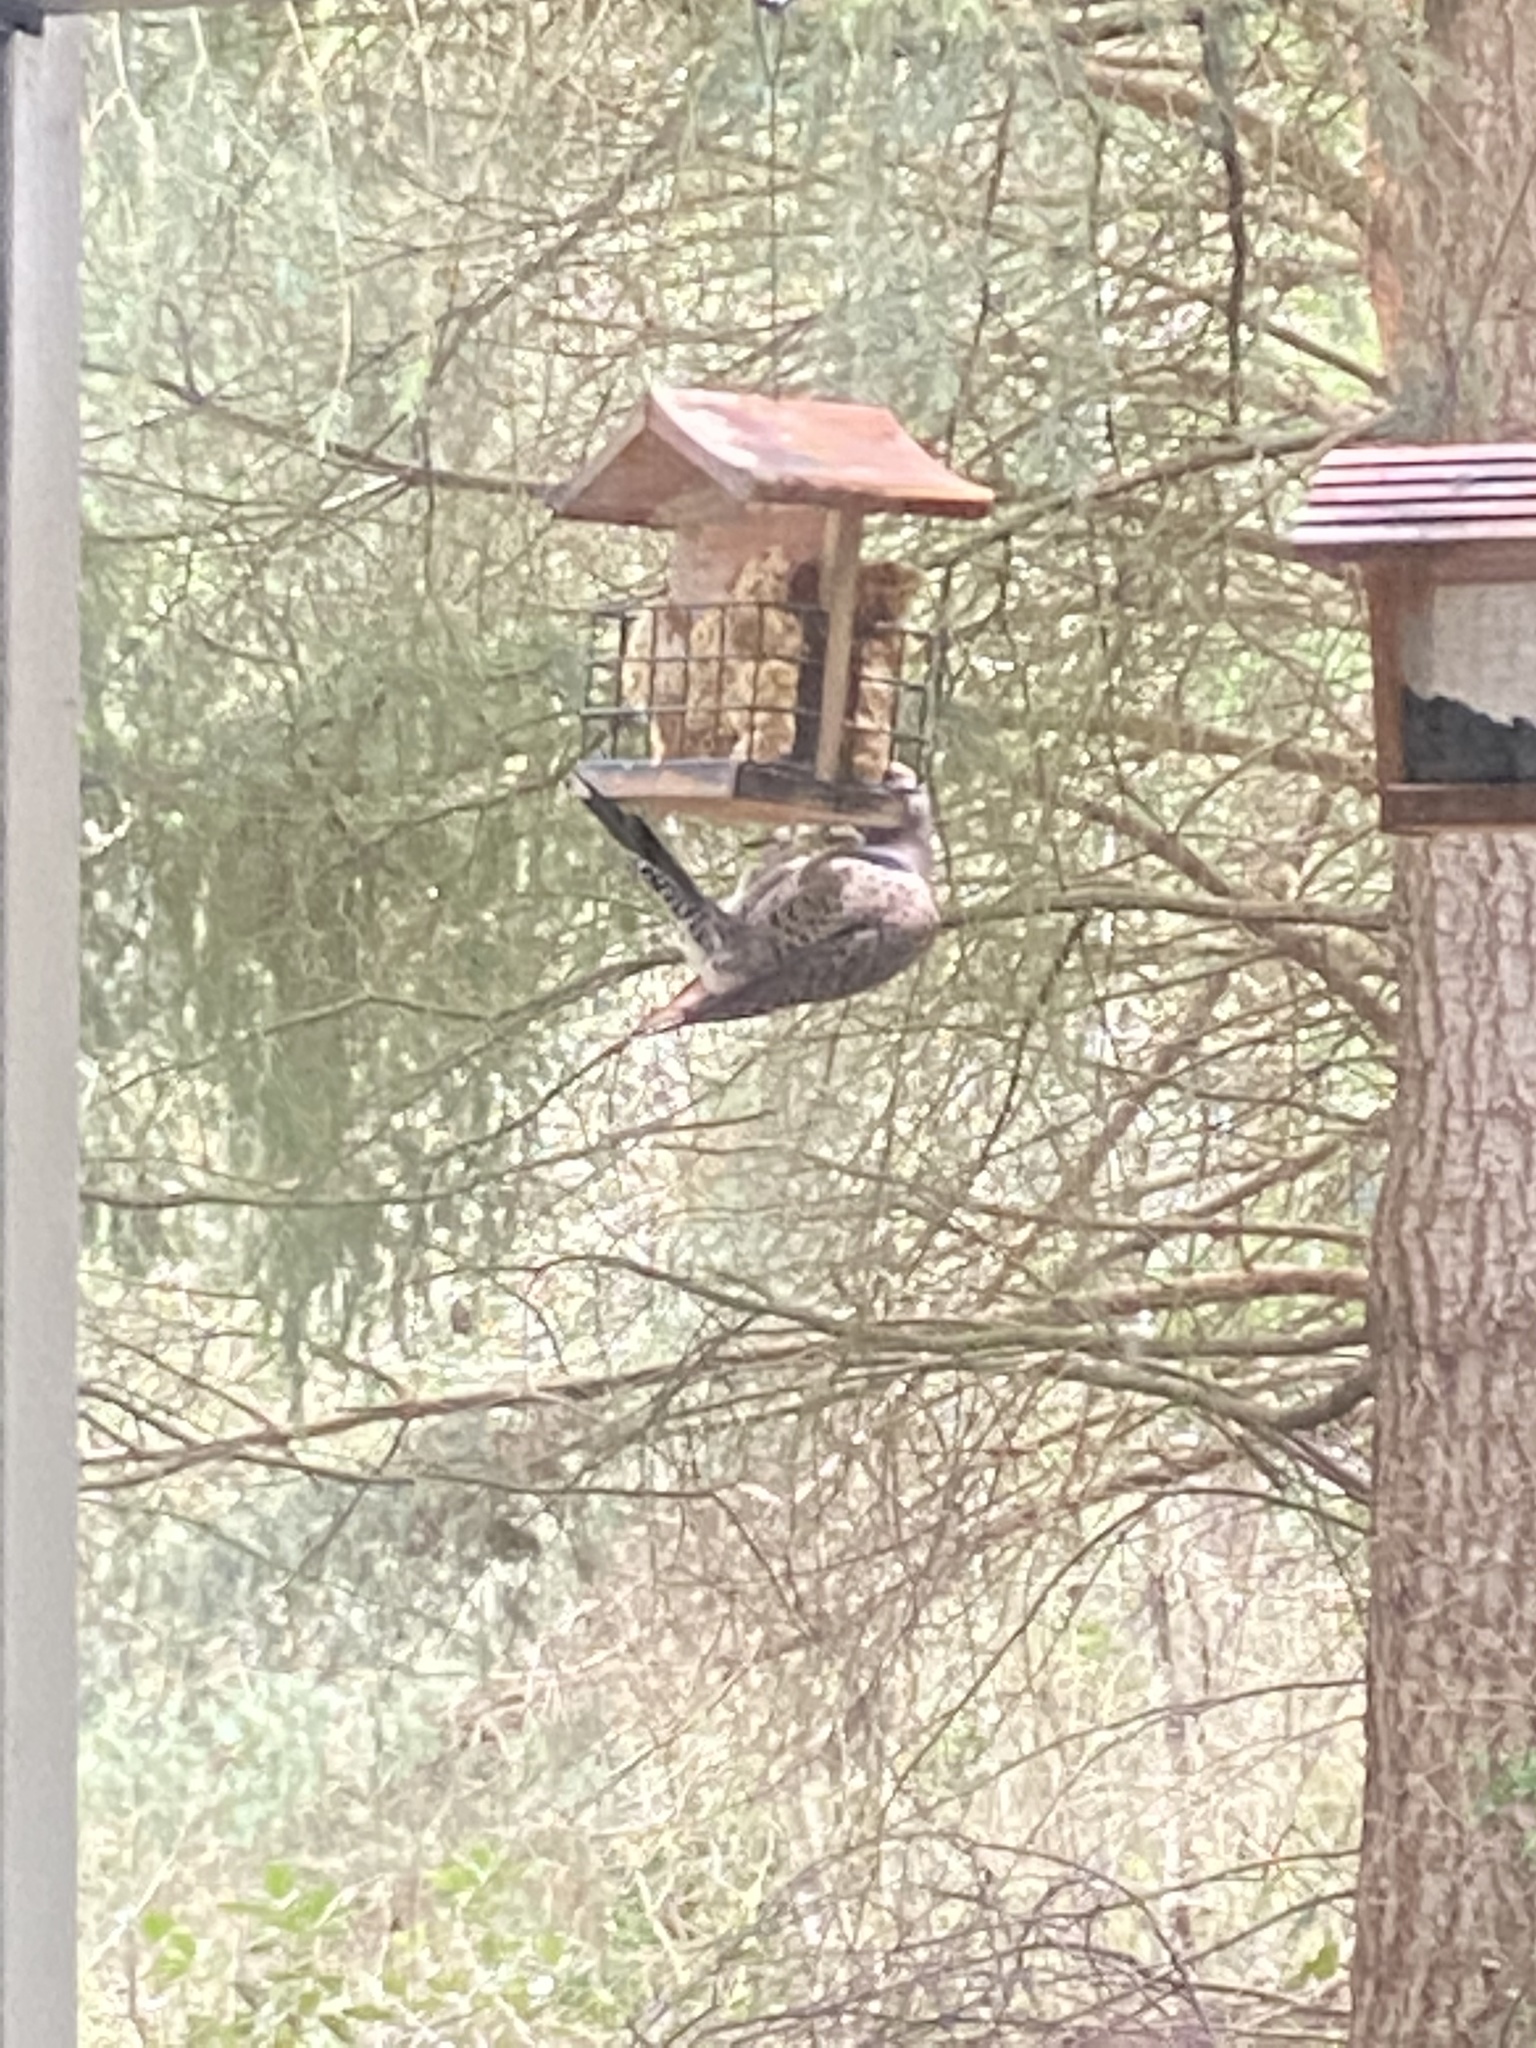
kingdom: Animalia
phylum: Chordata
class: Aves
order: Piciformes
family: Picidae
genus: Colaptes
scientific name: Colaptes auratus
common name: Northern flicker
